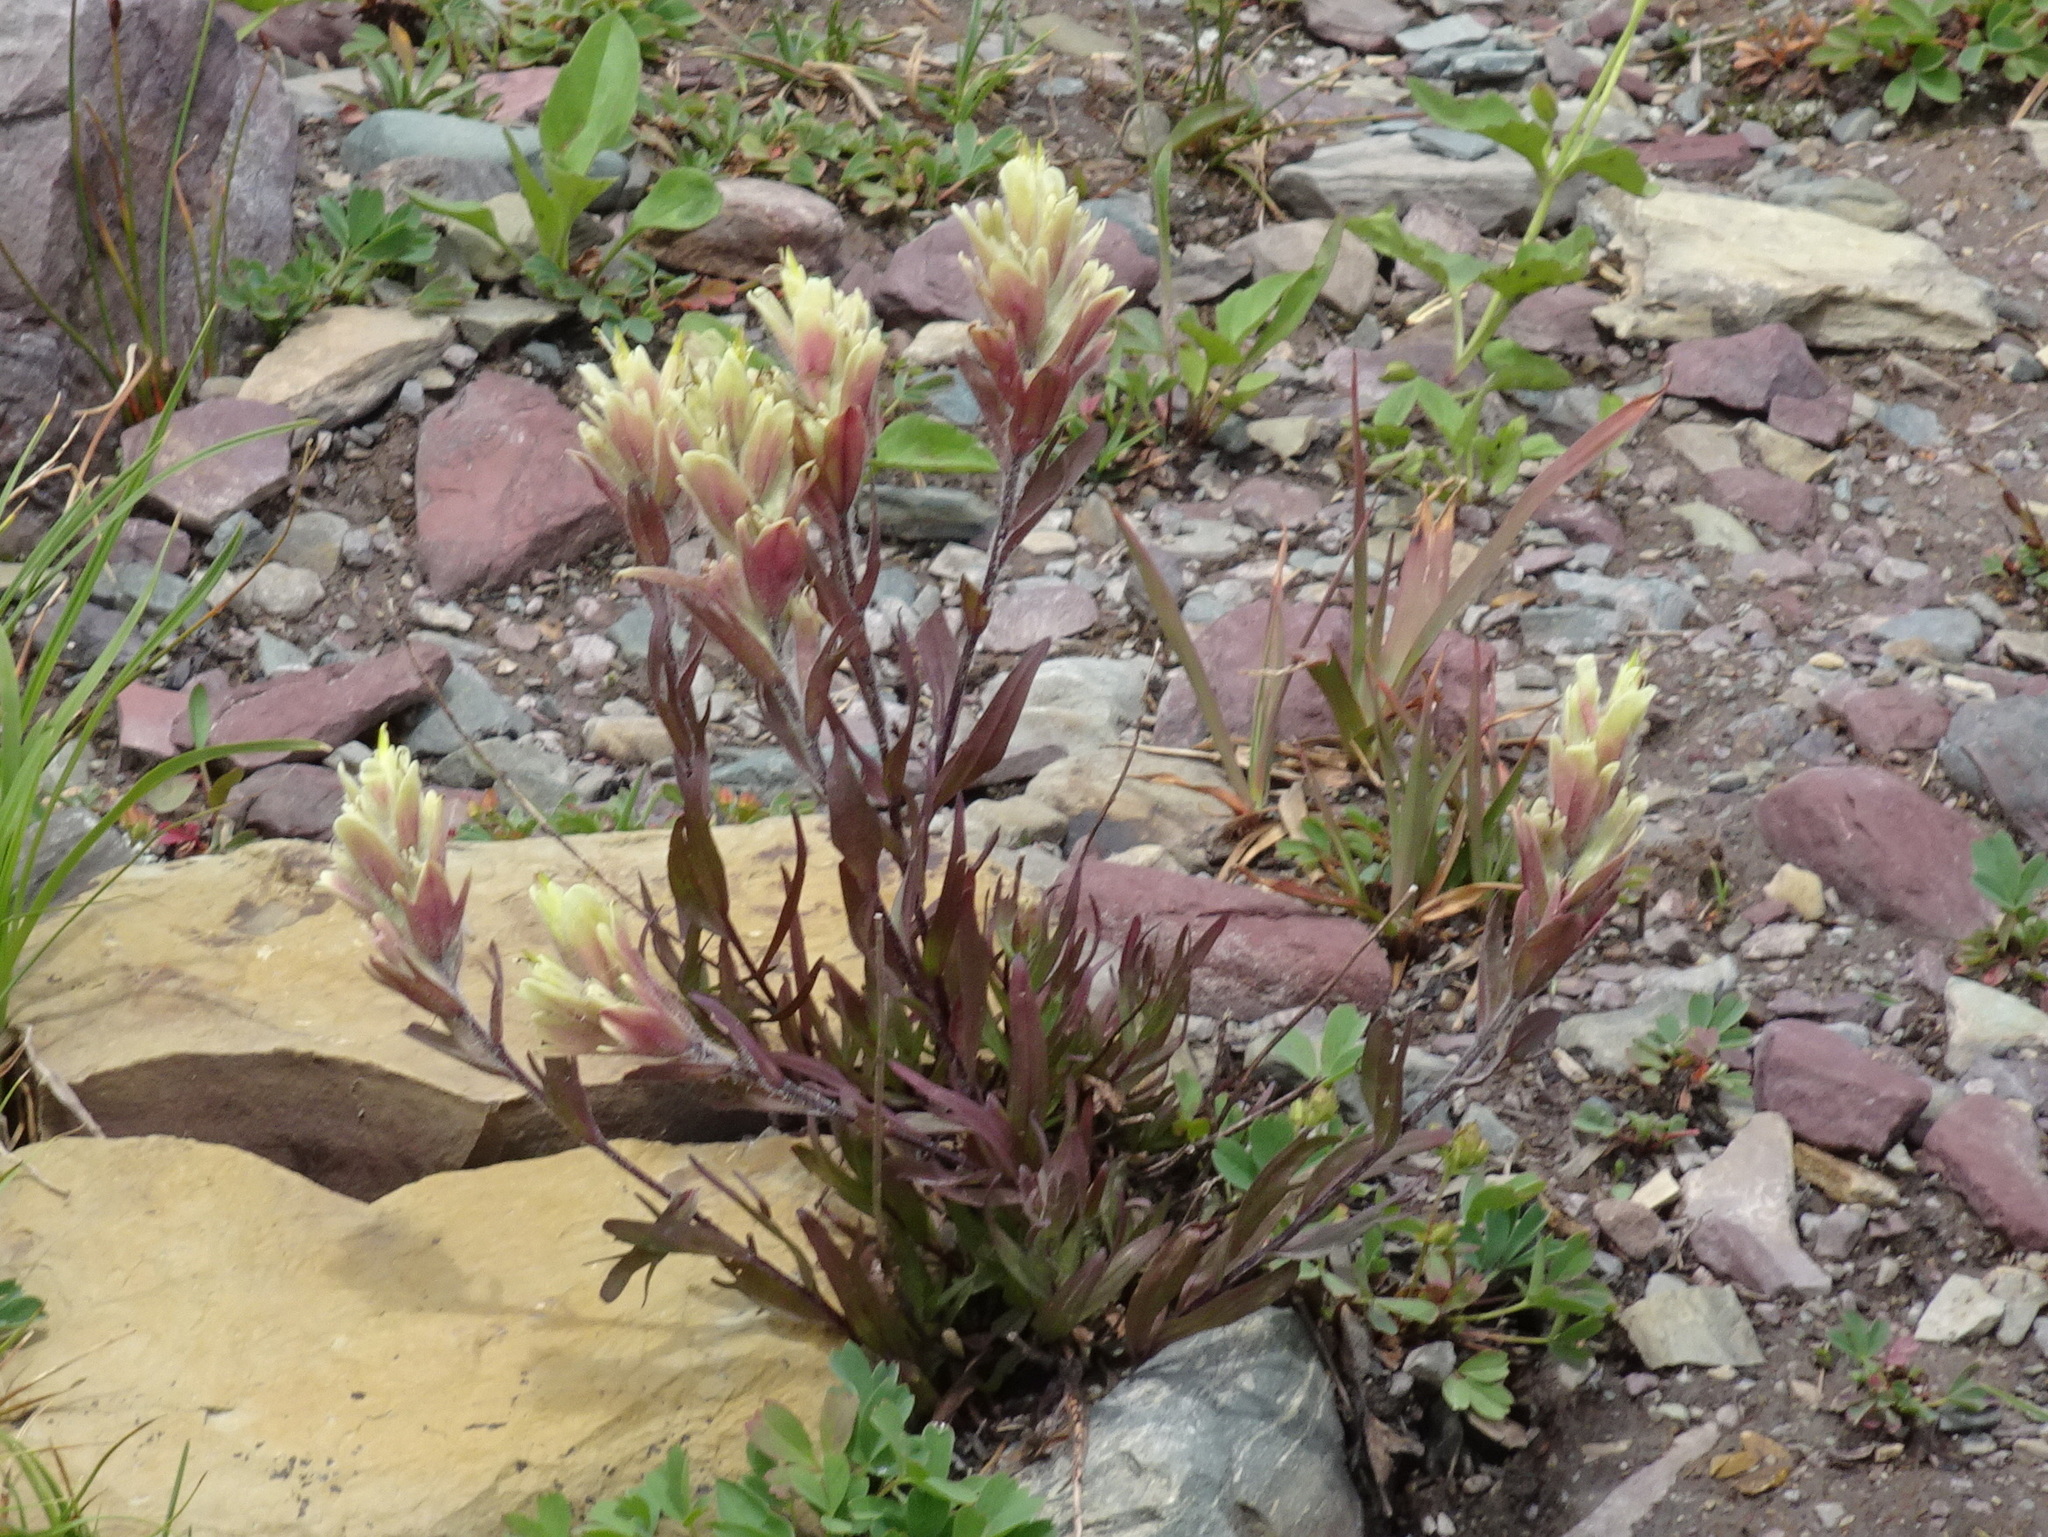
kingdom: Plantae
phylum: Tracheophyta
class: Magnoliopsida
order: Lamiales
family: Orobanchaceae
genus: Castilleja
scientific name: Castilleja occidentalis
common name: Western paintbrush
